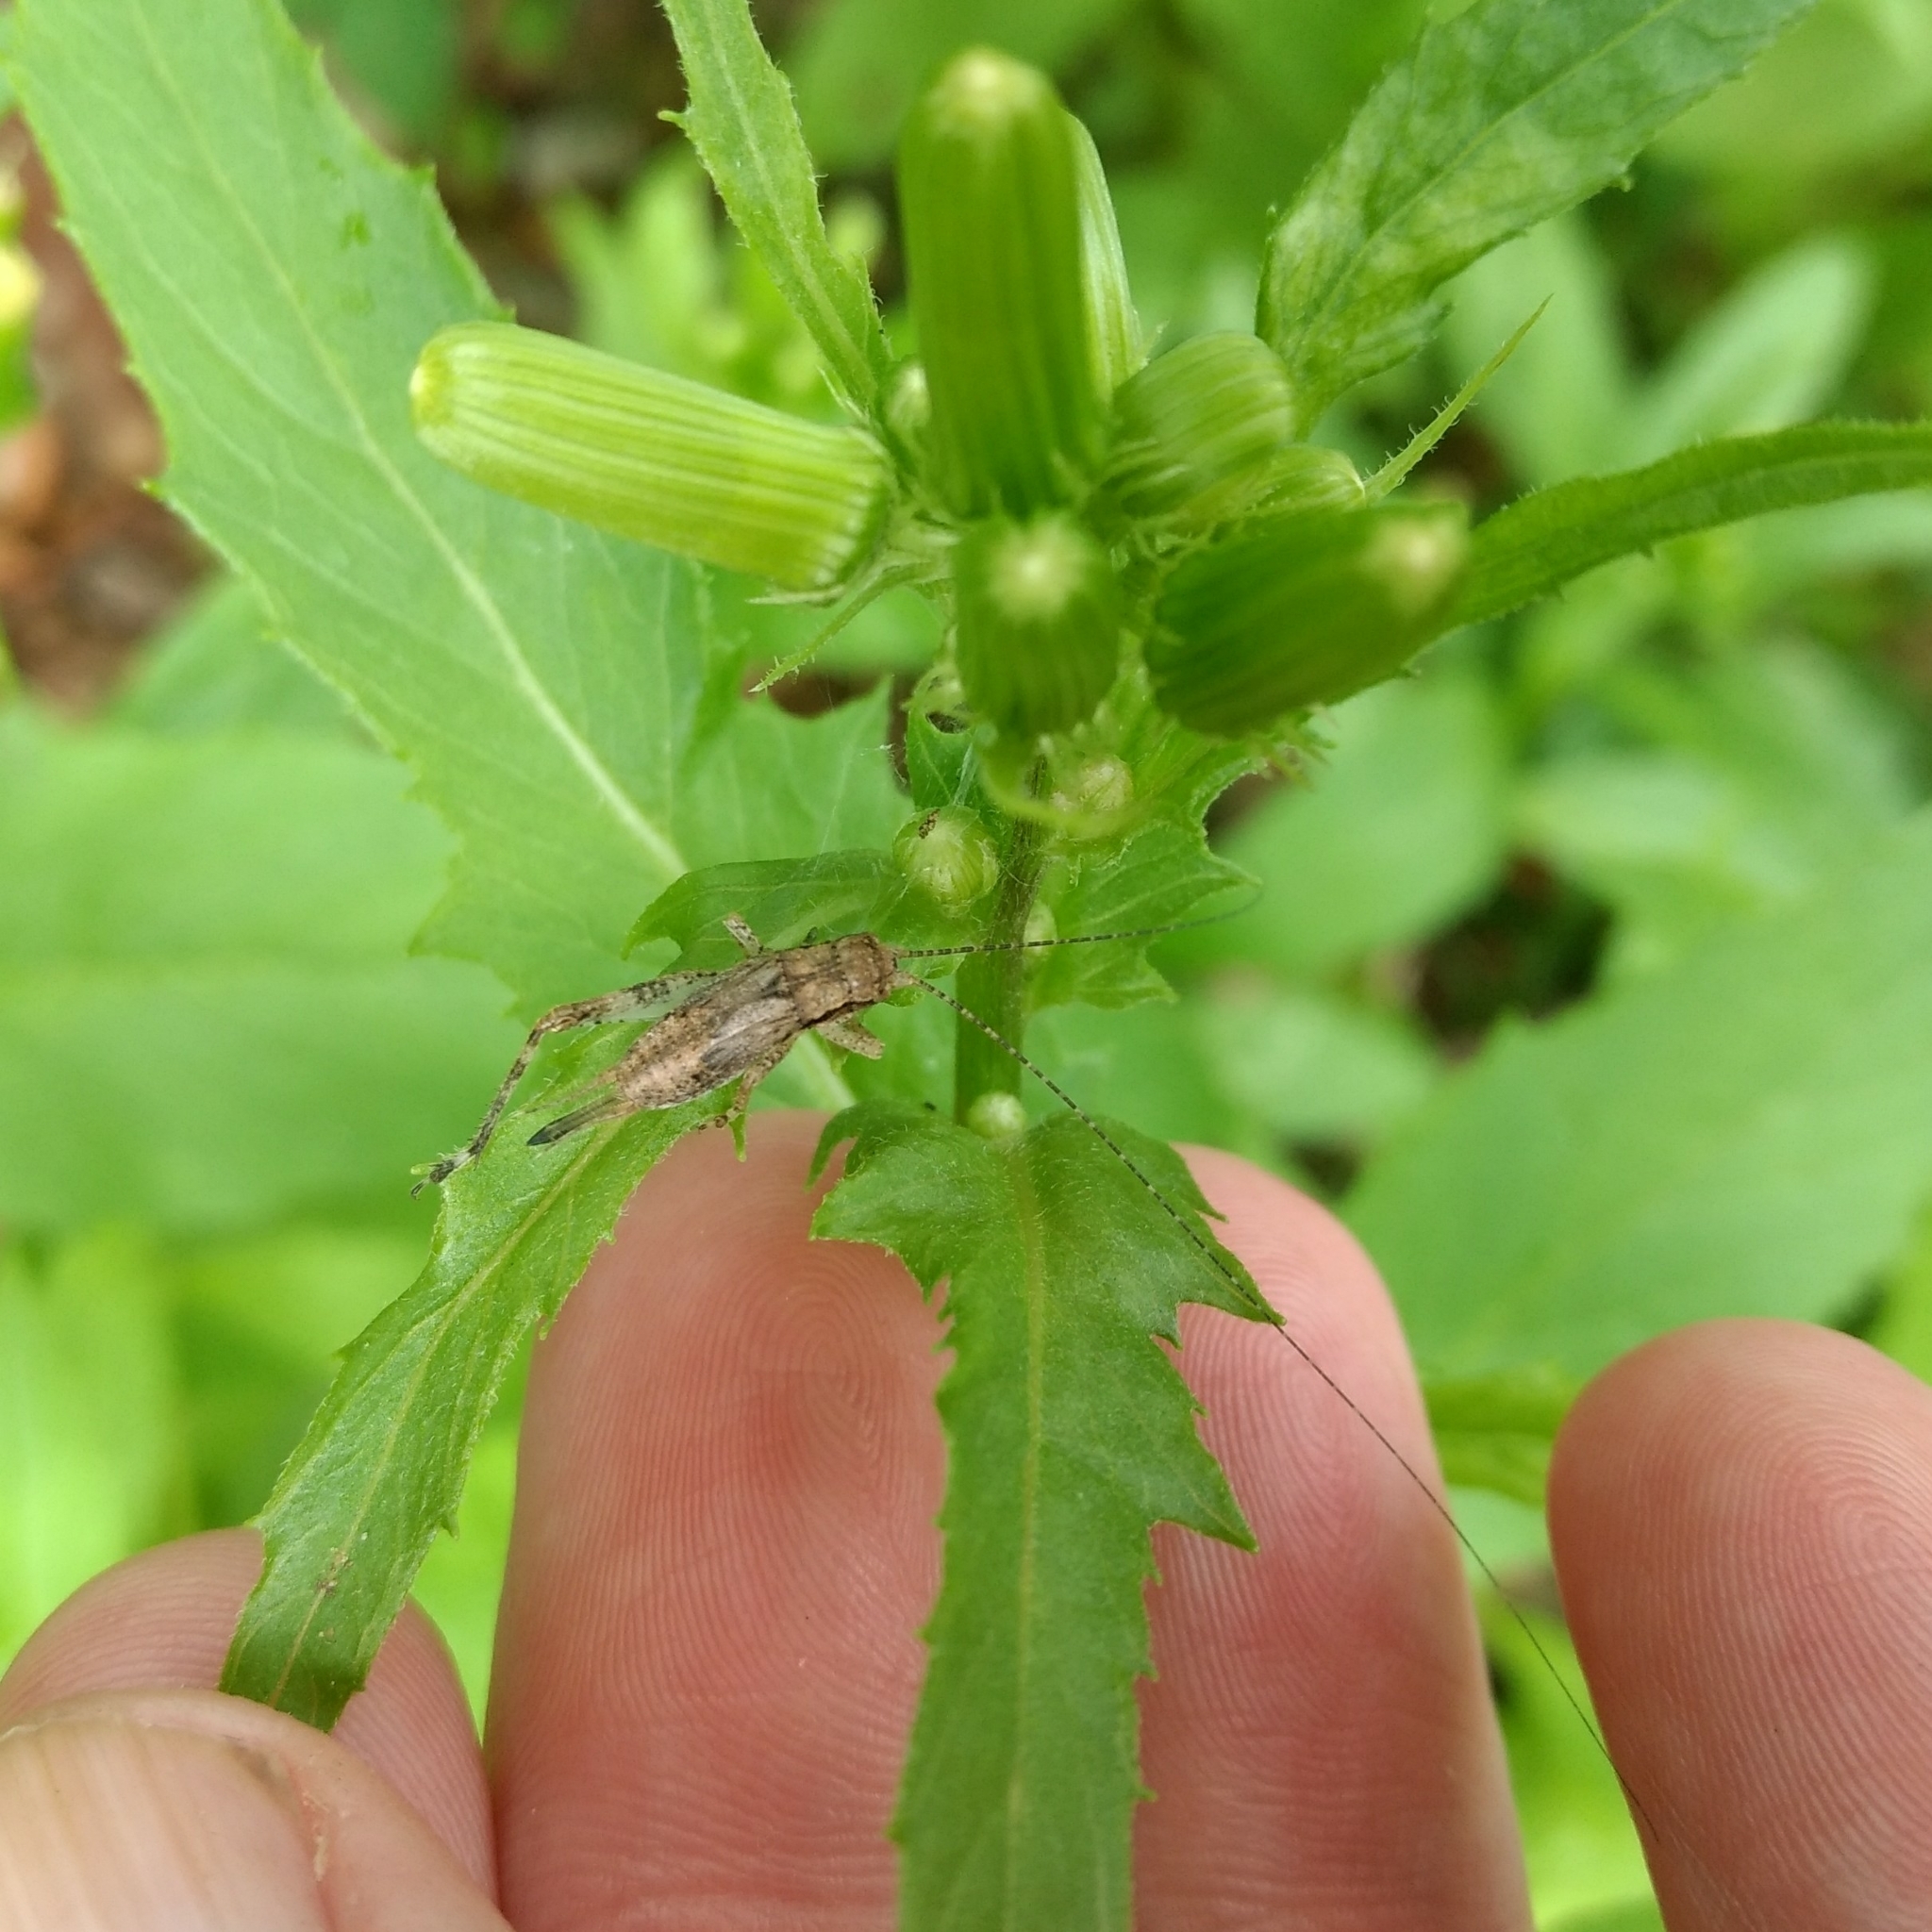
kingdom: Animalia
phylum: Arthropoda
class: Insecta
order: Orthoptera
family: Gryllidae
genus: Hapithus
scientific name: Hapithus saltator
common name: Jumping bush cricket
